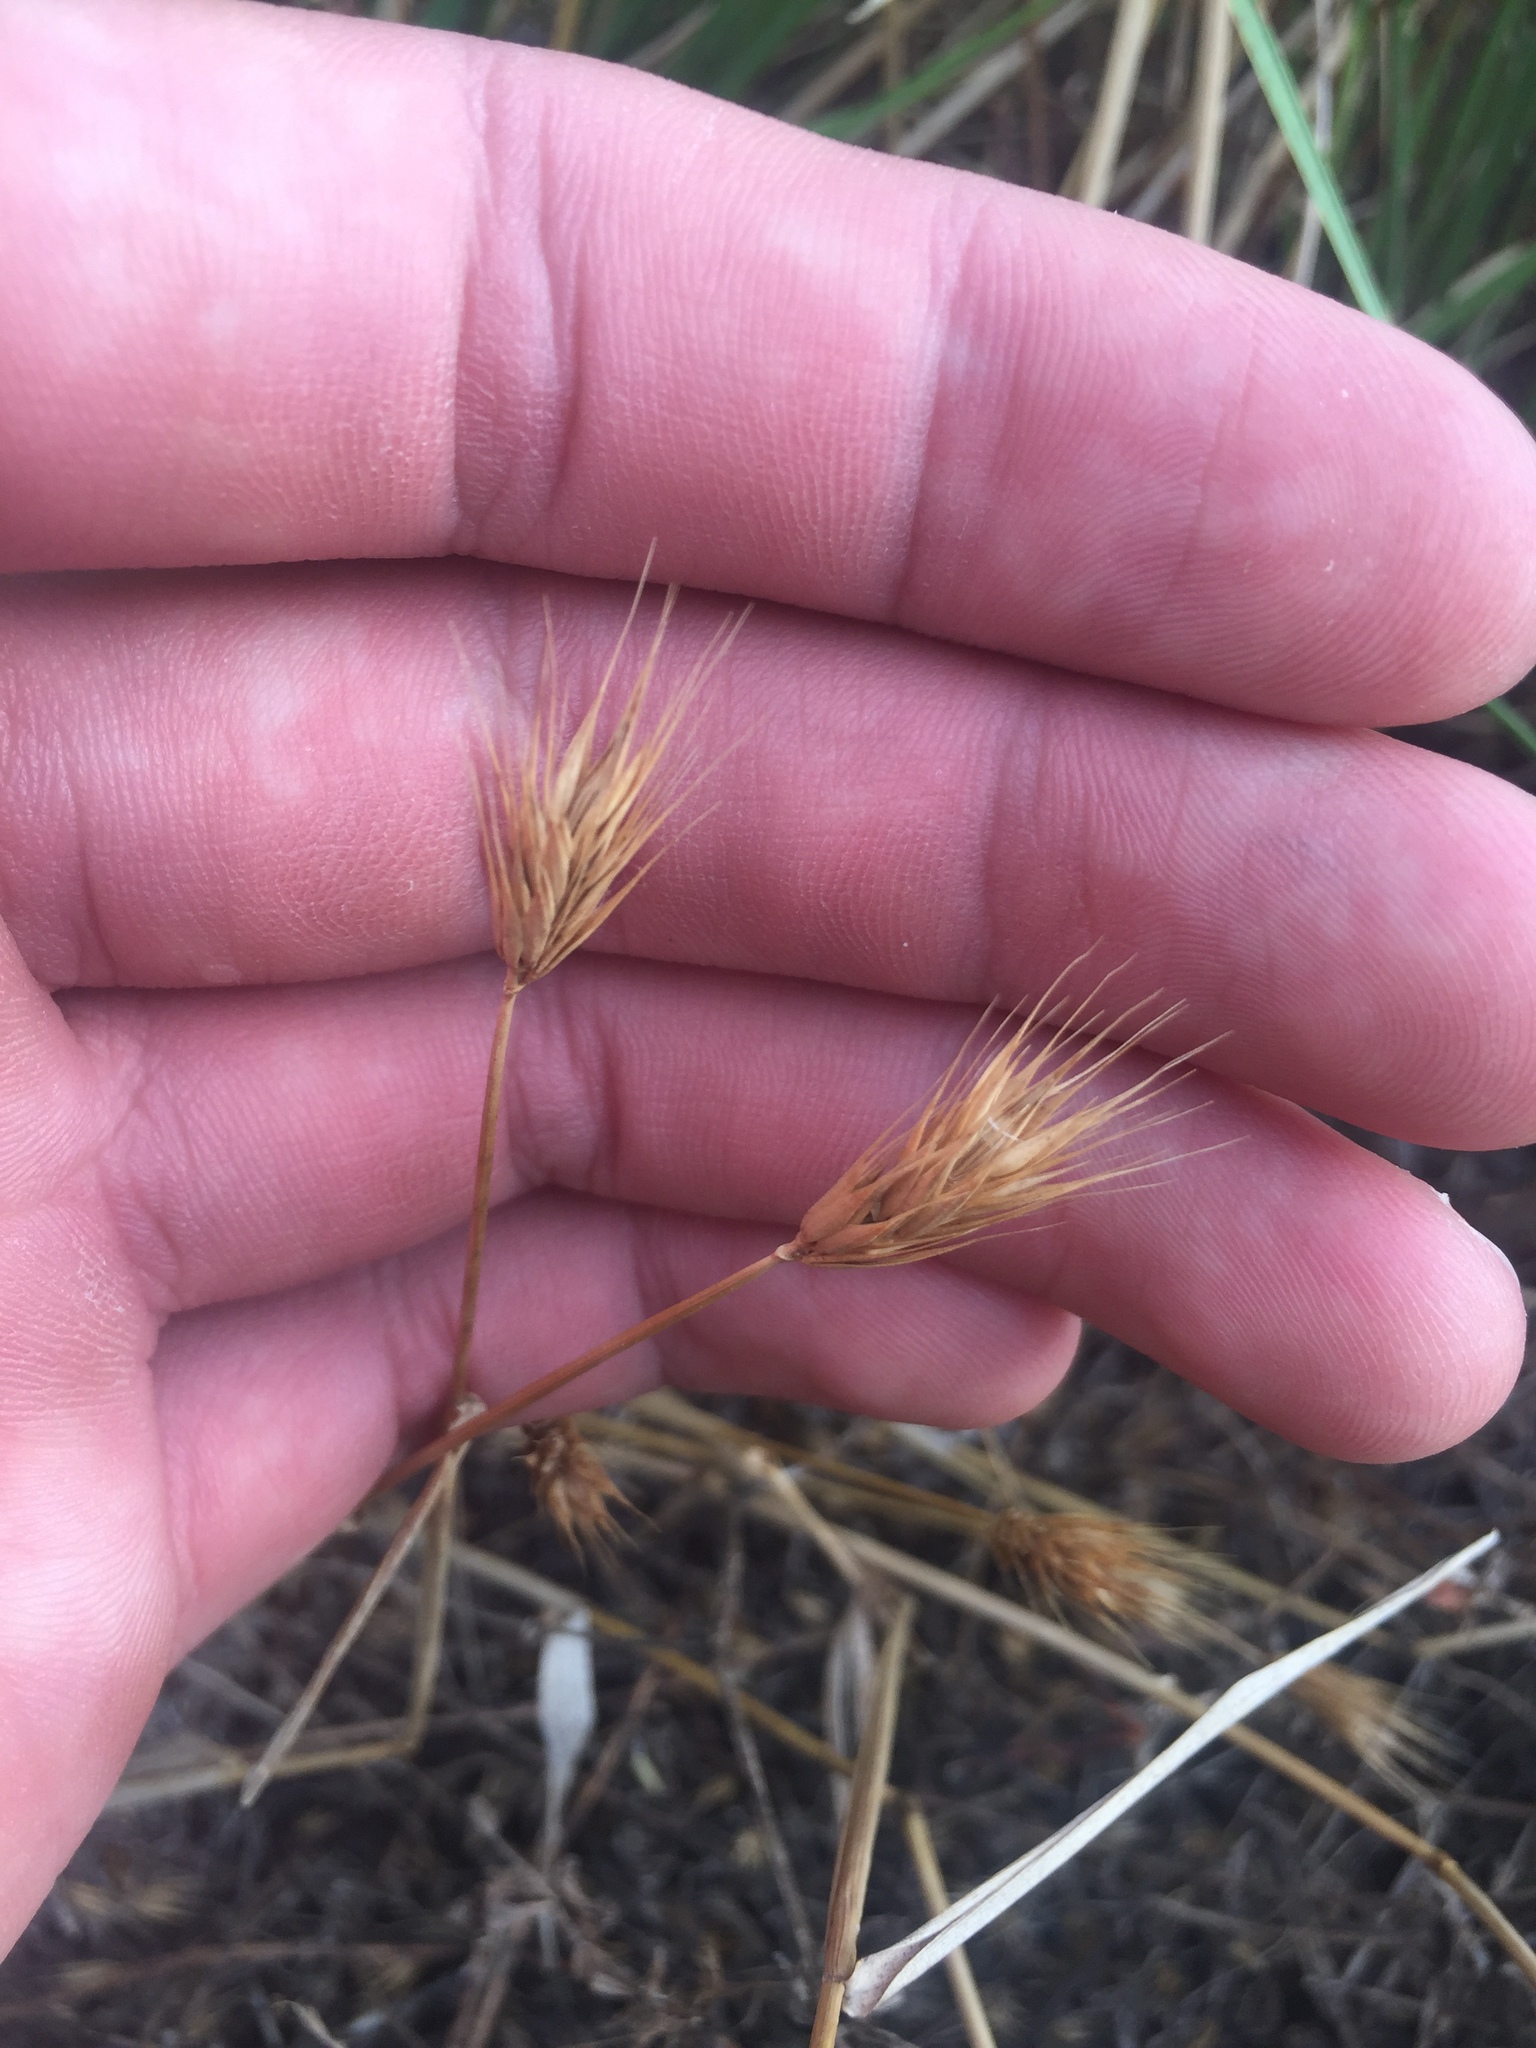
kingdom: Plantae
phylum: Tracheophyta
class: Liliopsida
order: Poales
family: Poaceae
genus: Hordeum
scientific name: Hordeum pusillum
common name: Little barley
